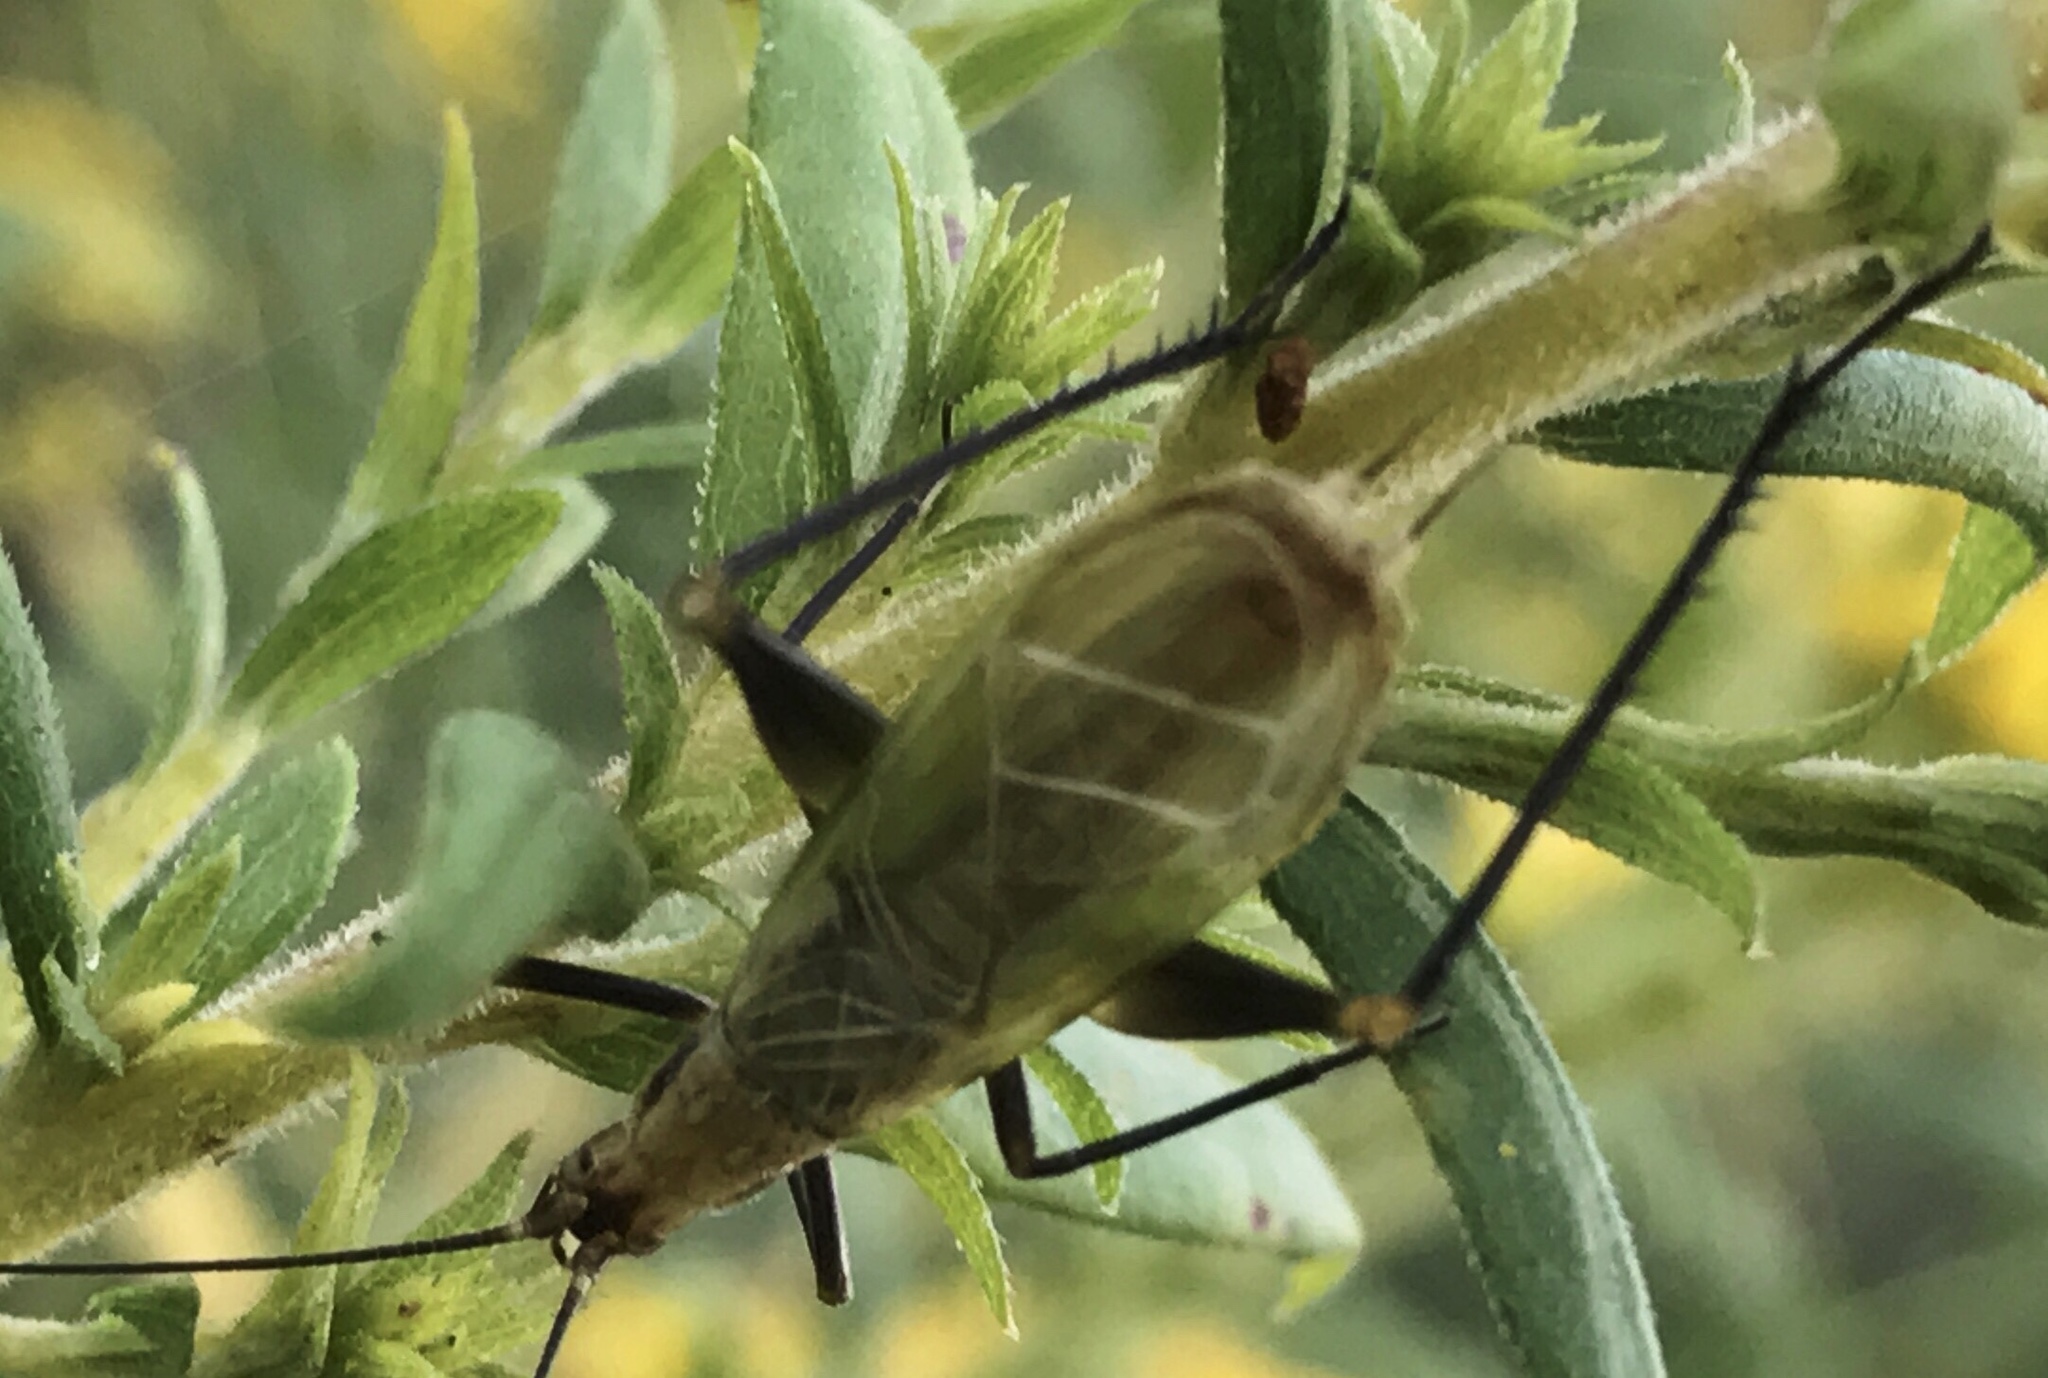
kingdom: Animalia
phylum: Arthropoda
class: Insecta
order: Orthoptera
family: Gryllidae
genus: Oecanthus
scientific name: Oecanthus nigricornis
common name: Black-horned tree cricket
